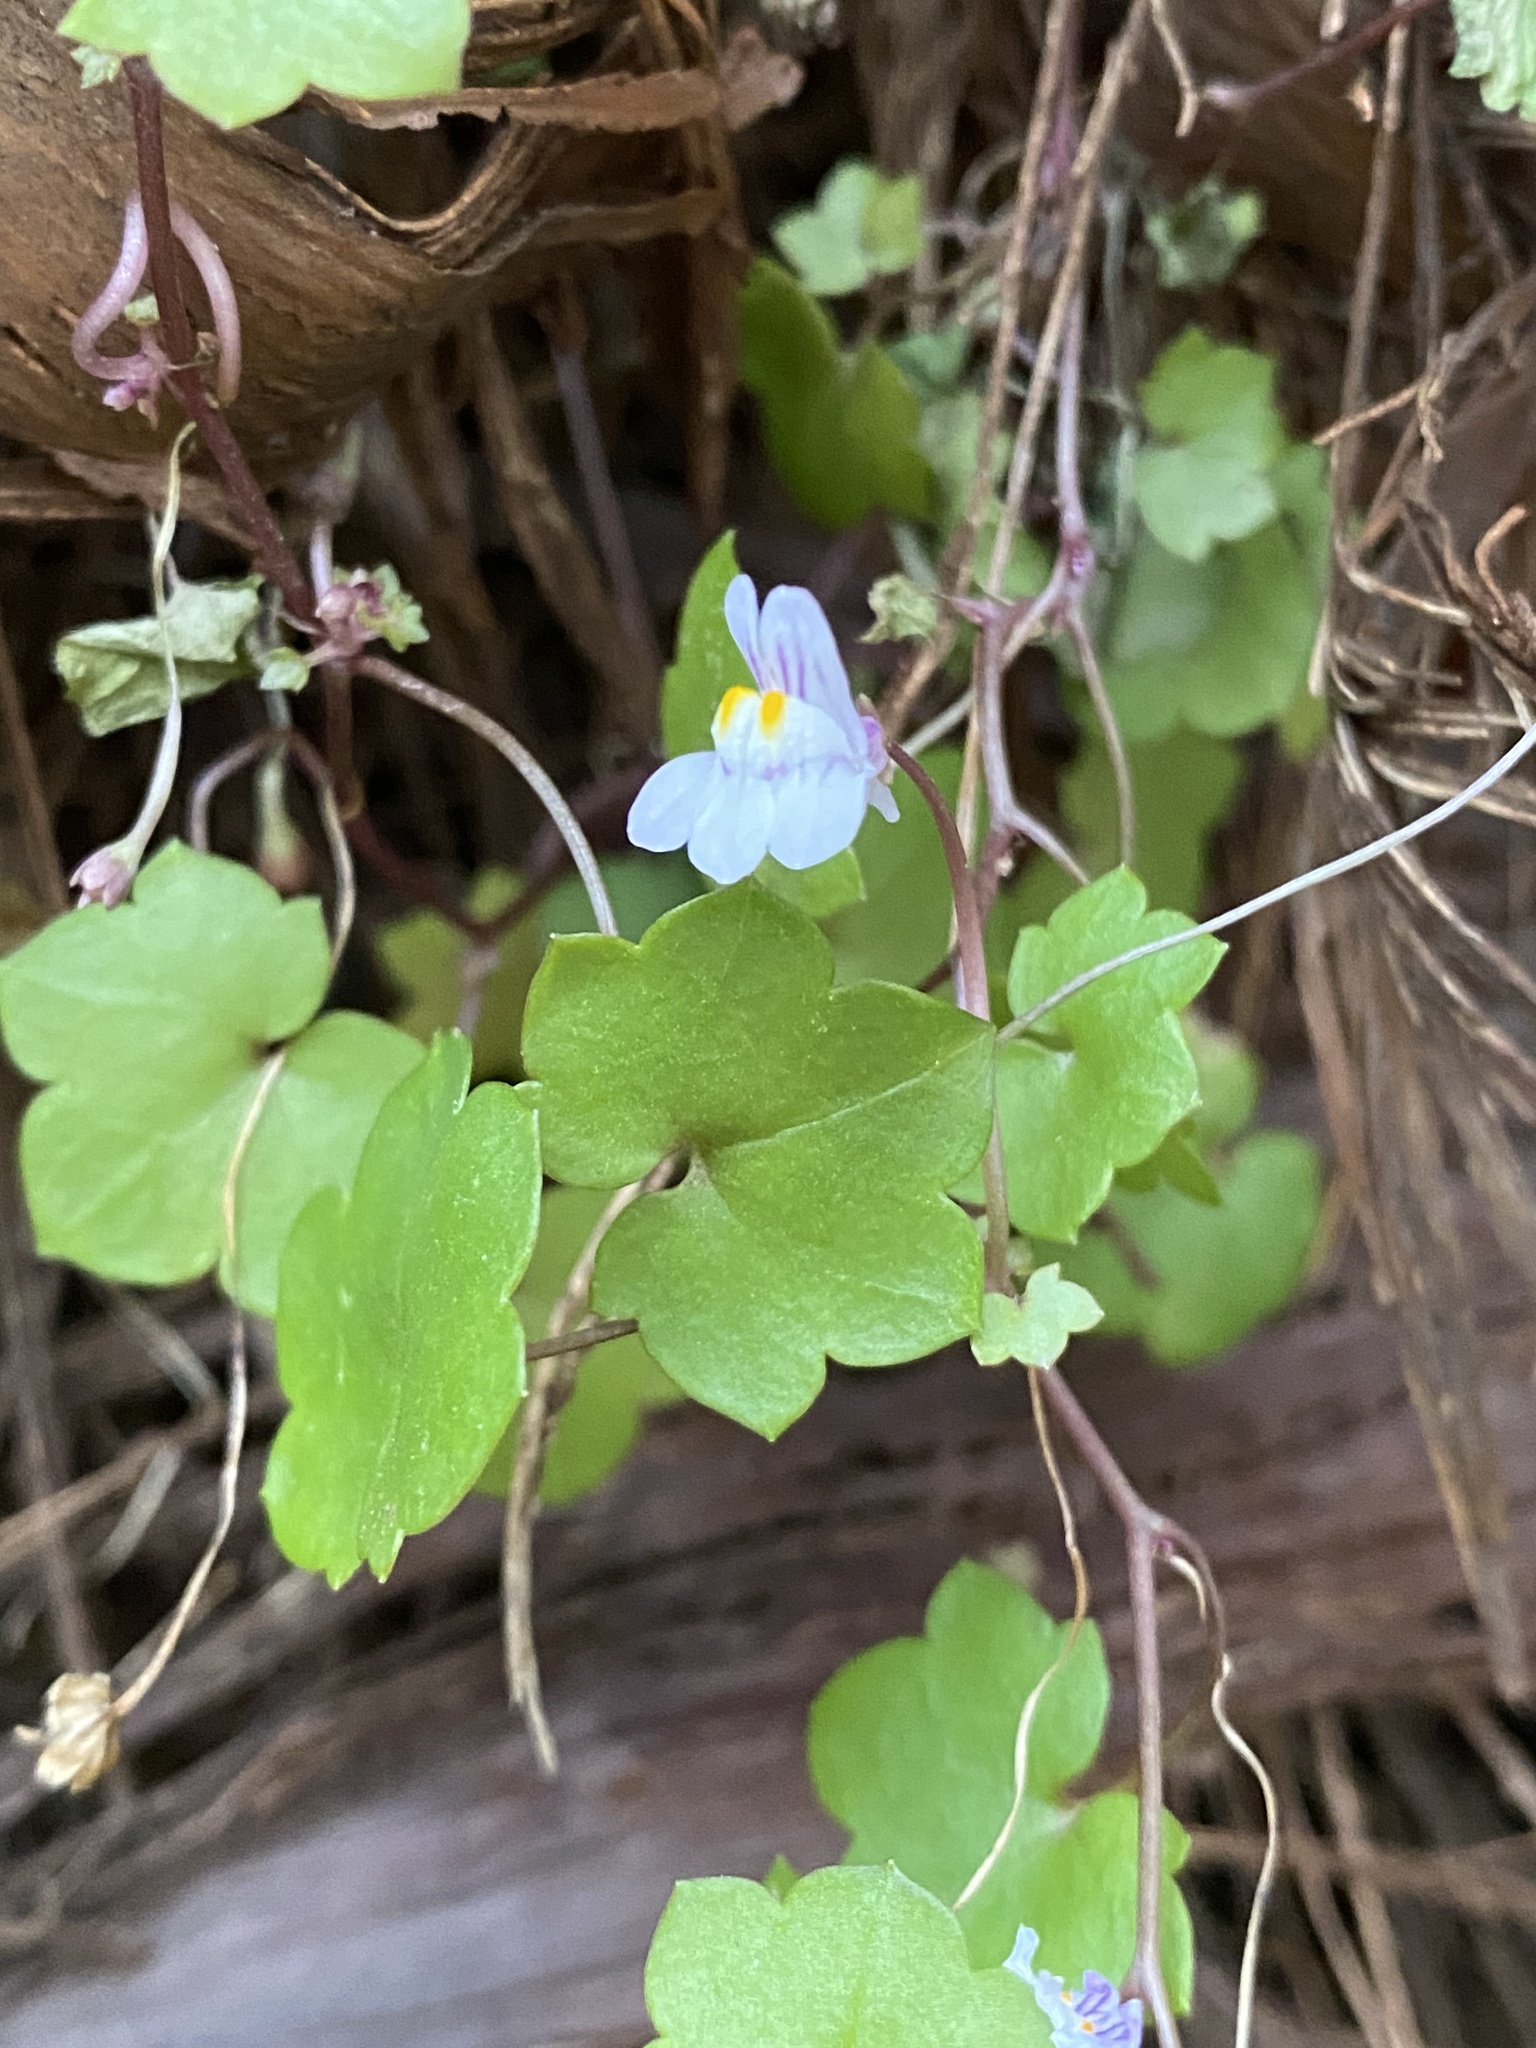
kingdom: Plantae
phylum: Tracheophyta
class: Magnoliopsida
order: Lamiales
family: Plantaginaceae
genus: Cymbalaria
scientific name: Cymbalaria muralis
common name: Ivy-leaved toadflax
